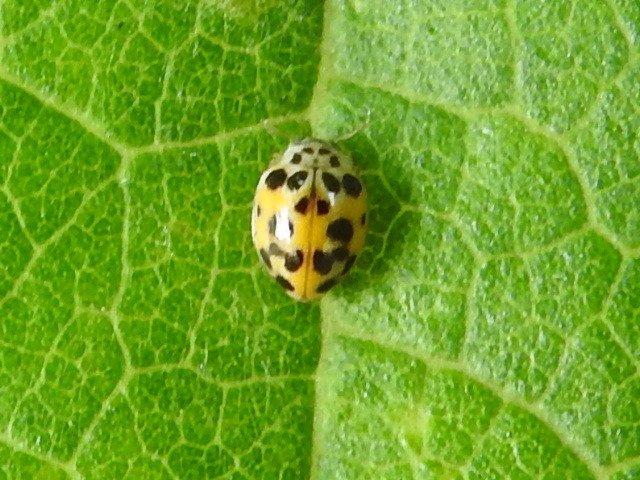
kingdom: Animalia
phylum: Arthropoda
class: Insecta
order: Coleoptera
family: Coccinellidae
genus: Psyllobora
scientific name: Psyllobora vigintimaculata
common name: Ladybird beetle
